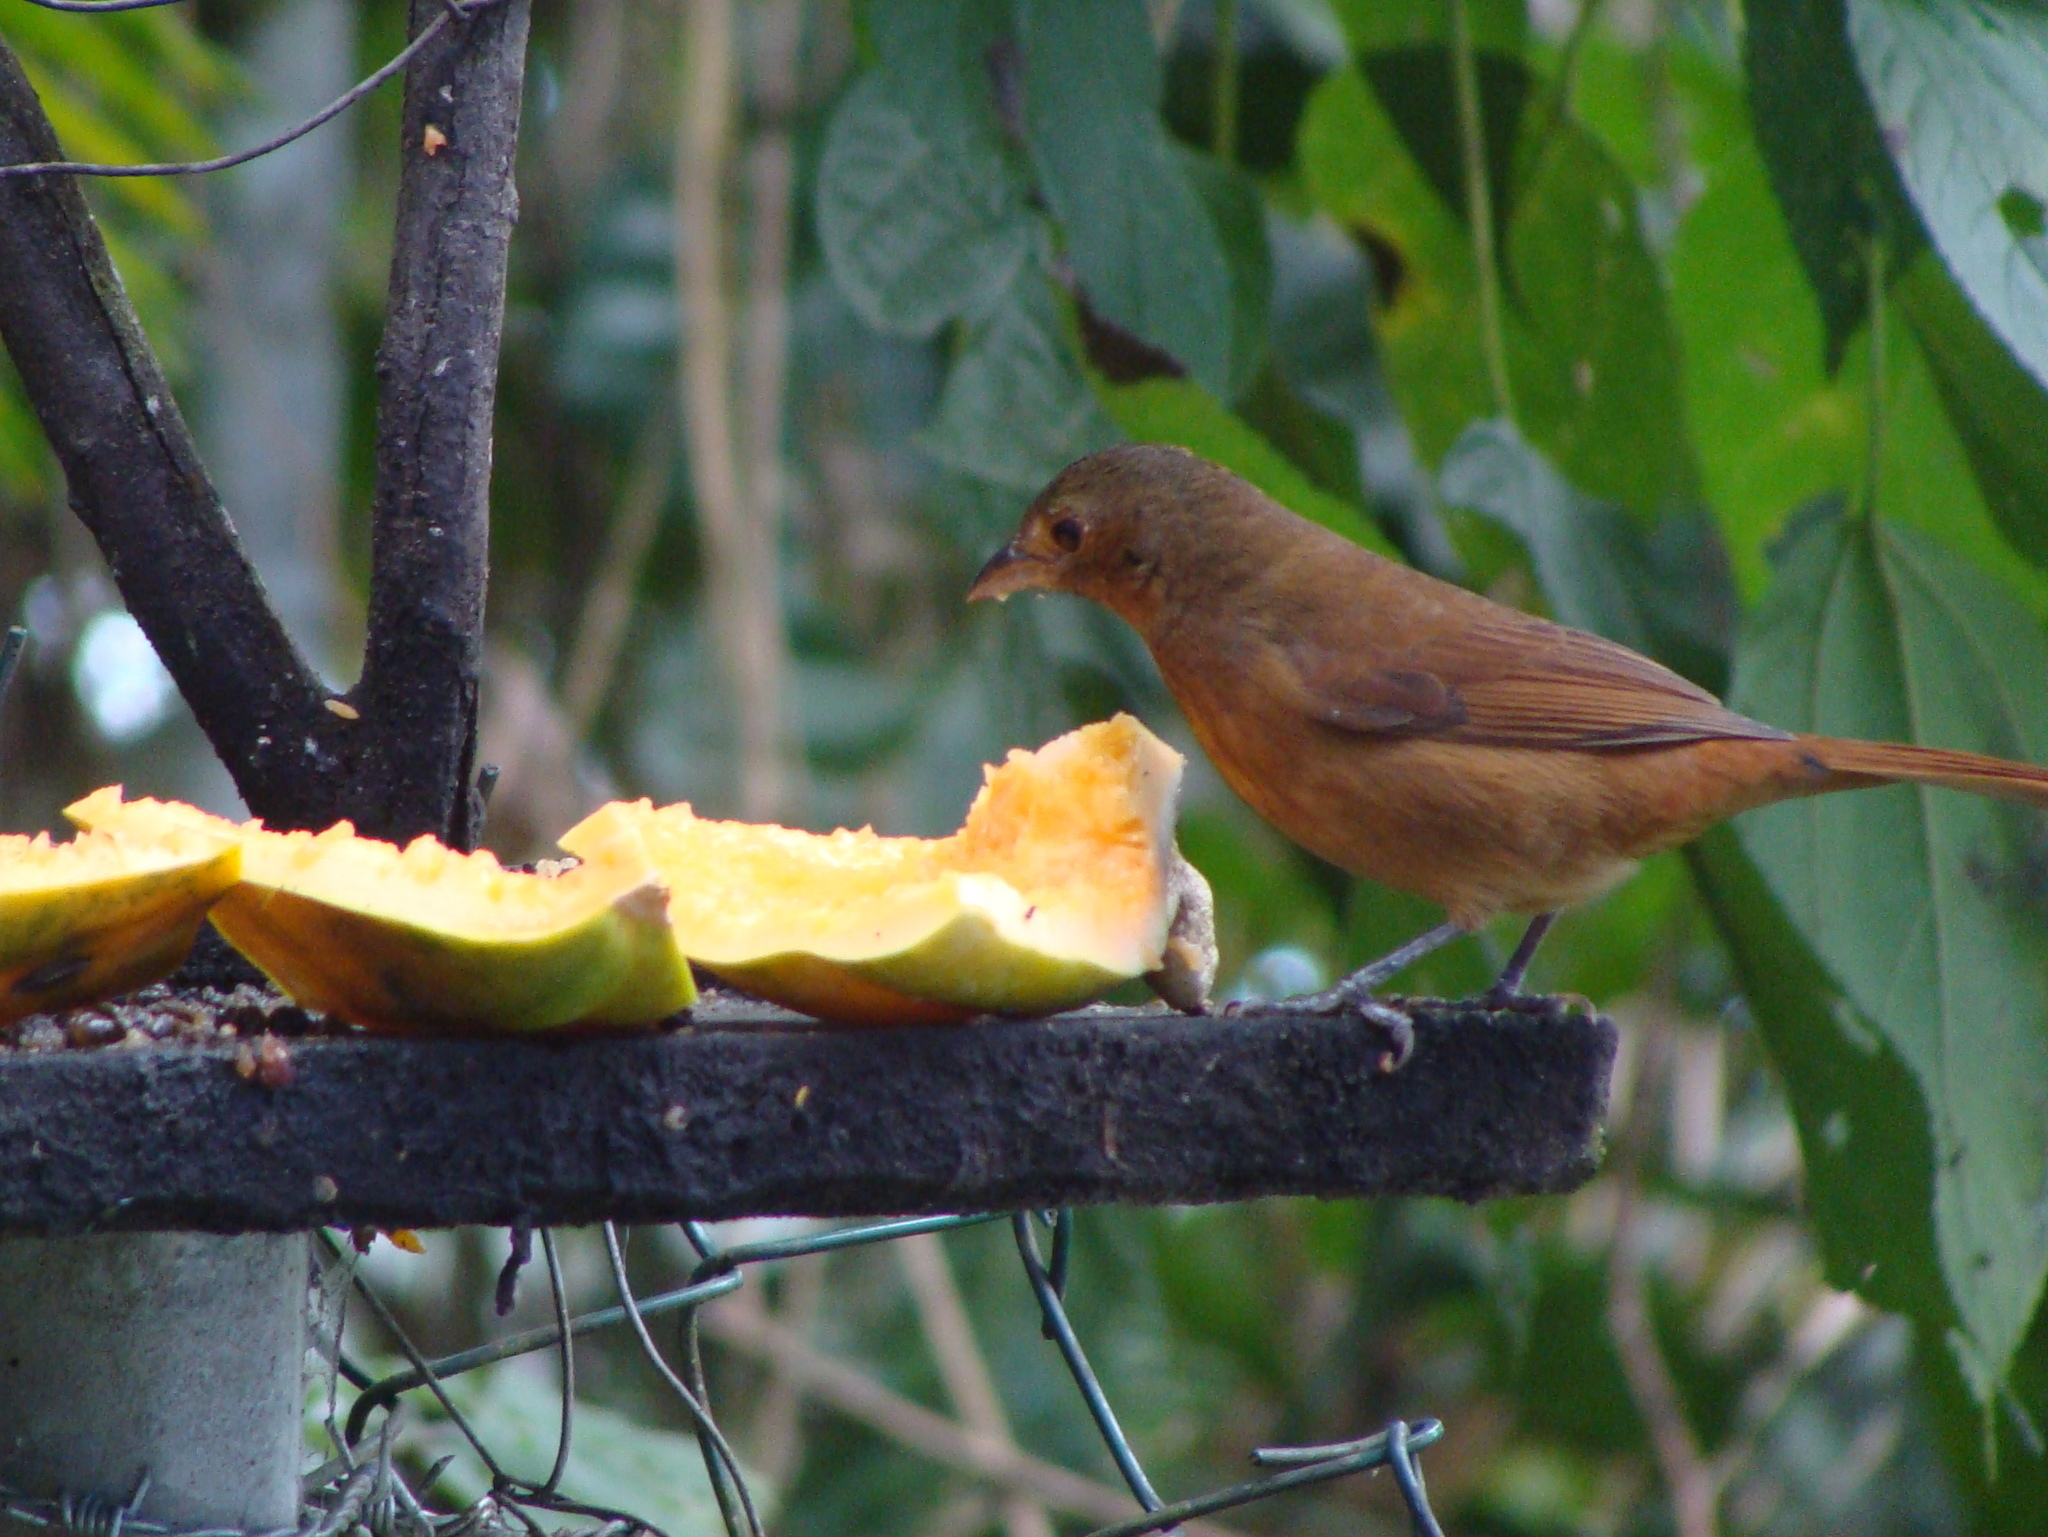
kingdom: Animalia
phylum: Chordata
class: Aves
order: Passeriformes
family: Thraupidae
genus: Tachyphonus
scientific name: Tachyphonus coronatus
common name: Ruby-crowned tanager
